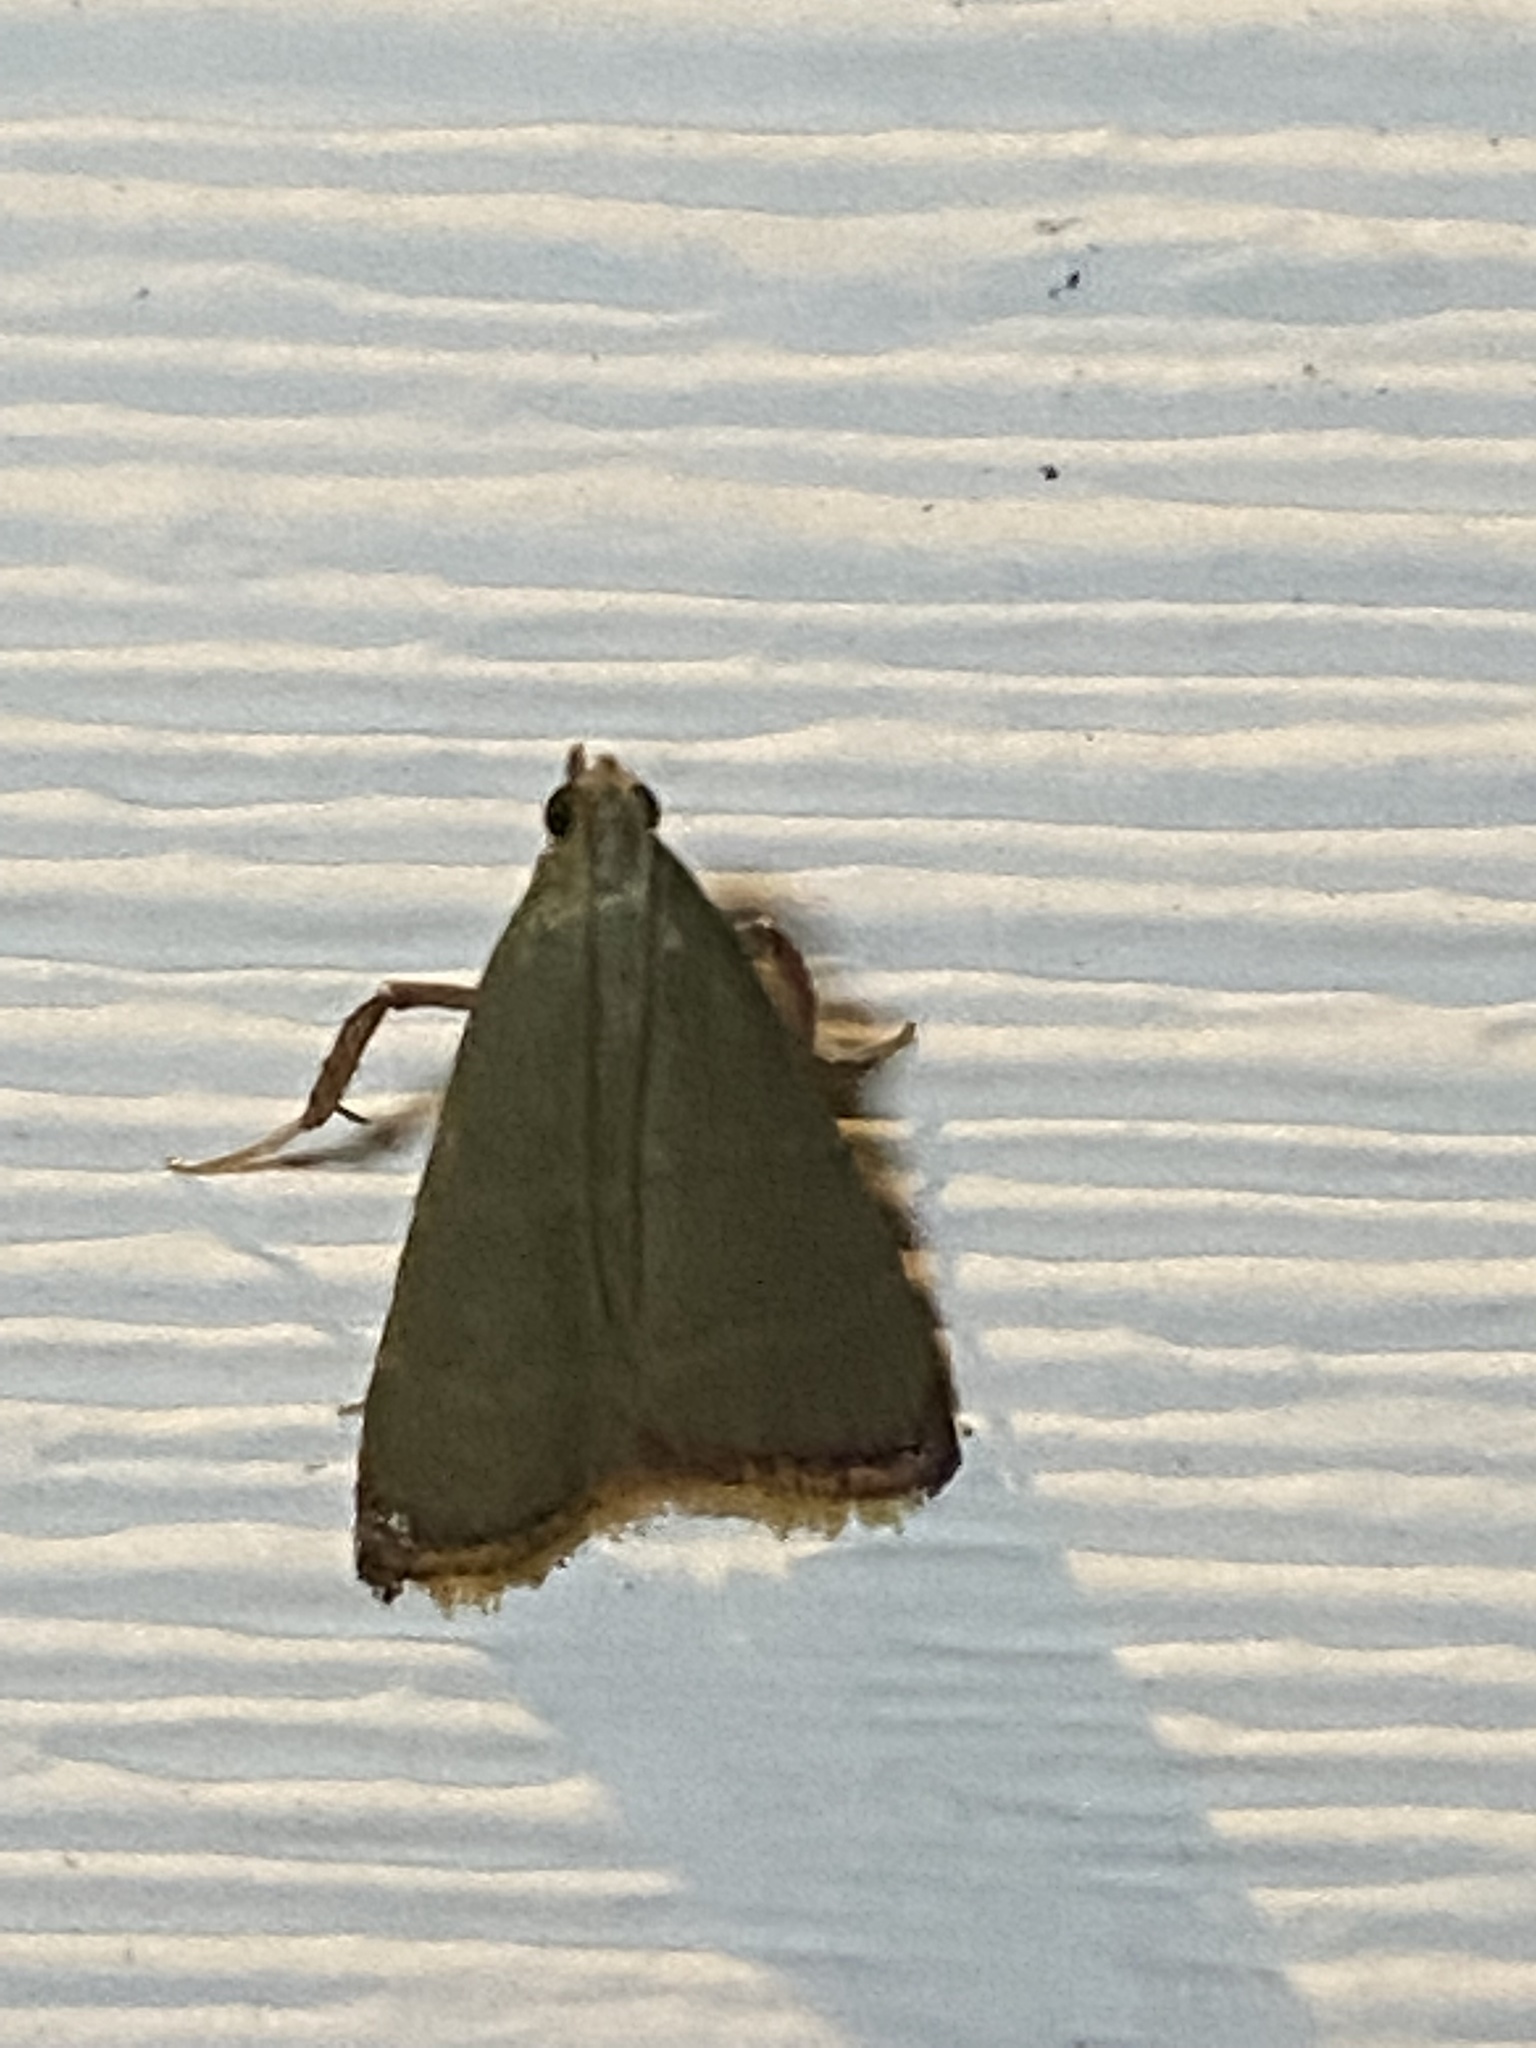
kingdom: Animalia
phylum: Arthropoda
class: Insecta
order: Lepidoptera
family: Pyralidae
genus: Arta
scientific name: Arta olivalis
